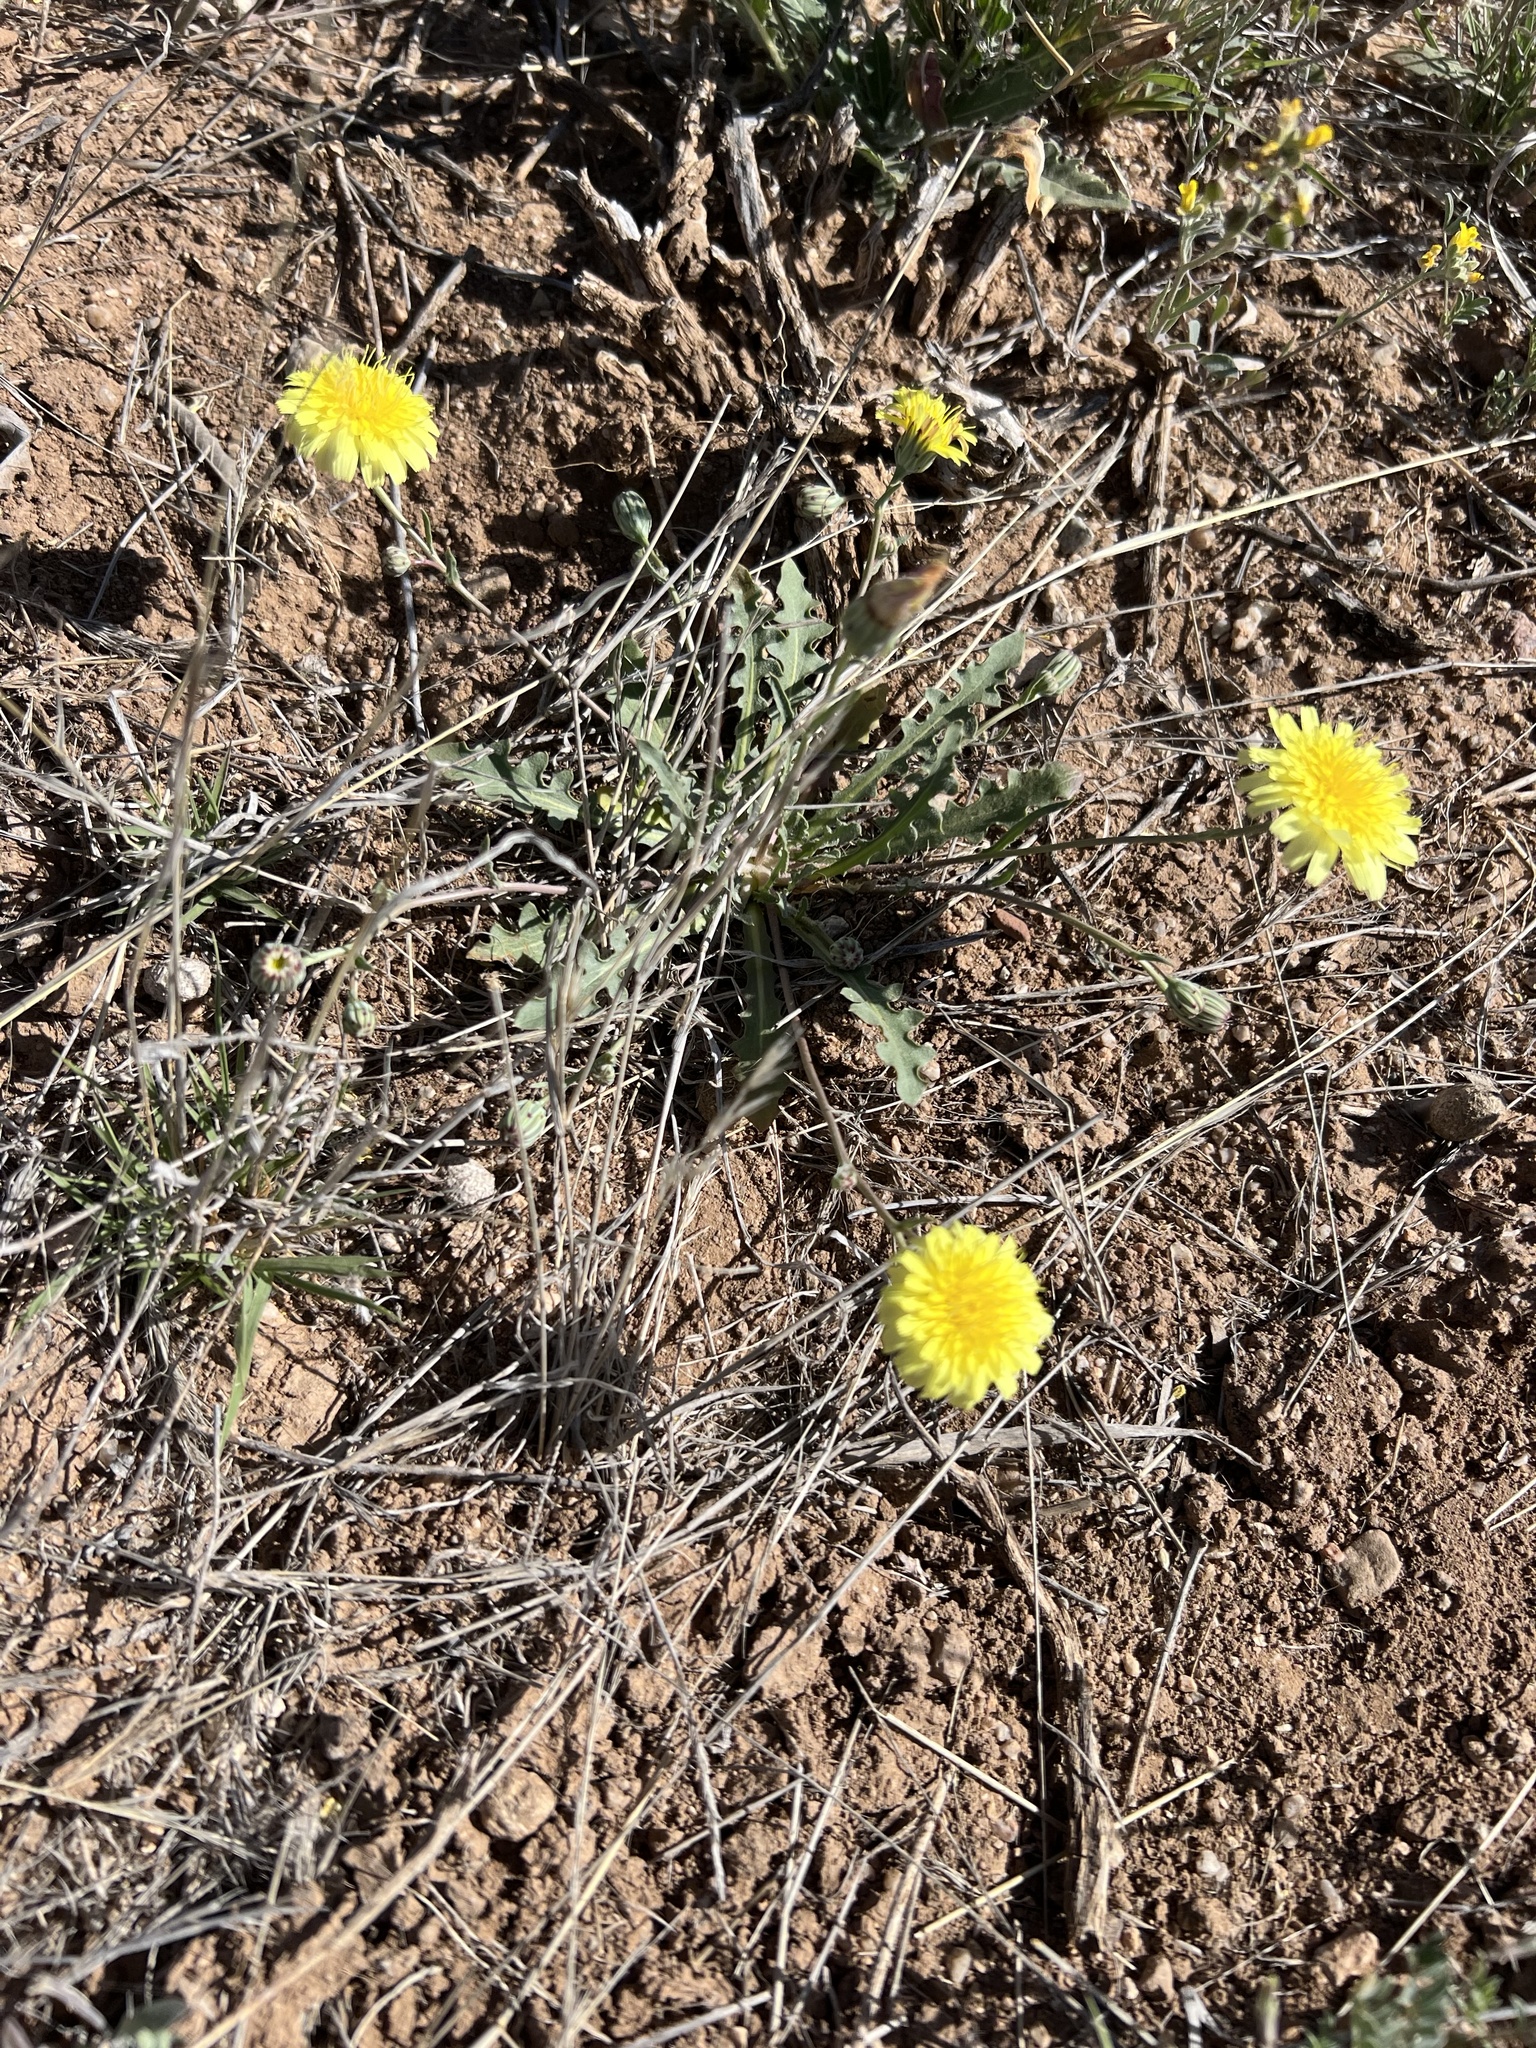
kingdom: Plantae
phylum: Tracheophyta
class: Magnoliopsida
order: Asterales
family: Asteraceae
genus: Malacothrix
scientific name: Malacothrix fendleri
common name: Fendler's desert-dandelion
